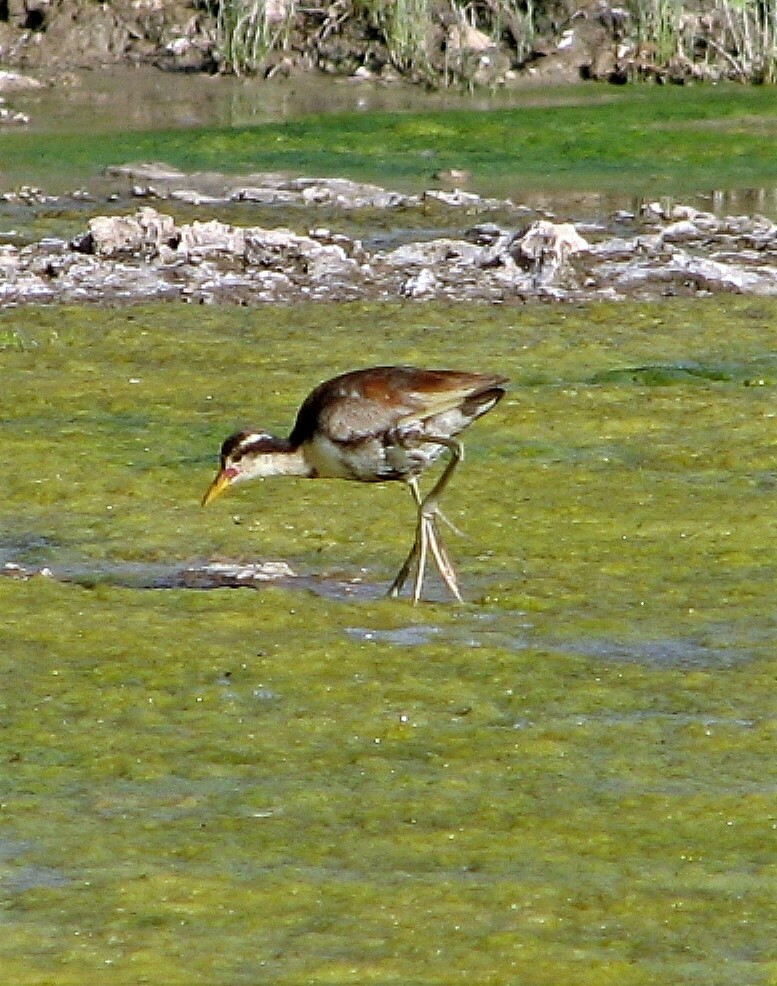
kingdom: Animalia
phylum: Chordata
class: Aves
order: Charadriiformes
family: Jacanidae
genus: Jacana
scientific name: Jacana jacana
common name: Wattled jacana
